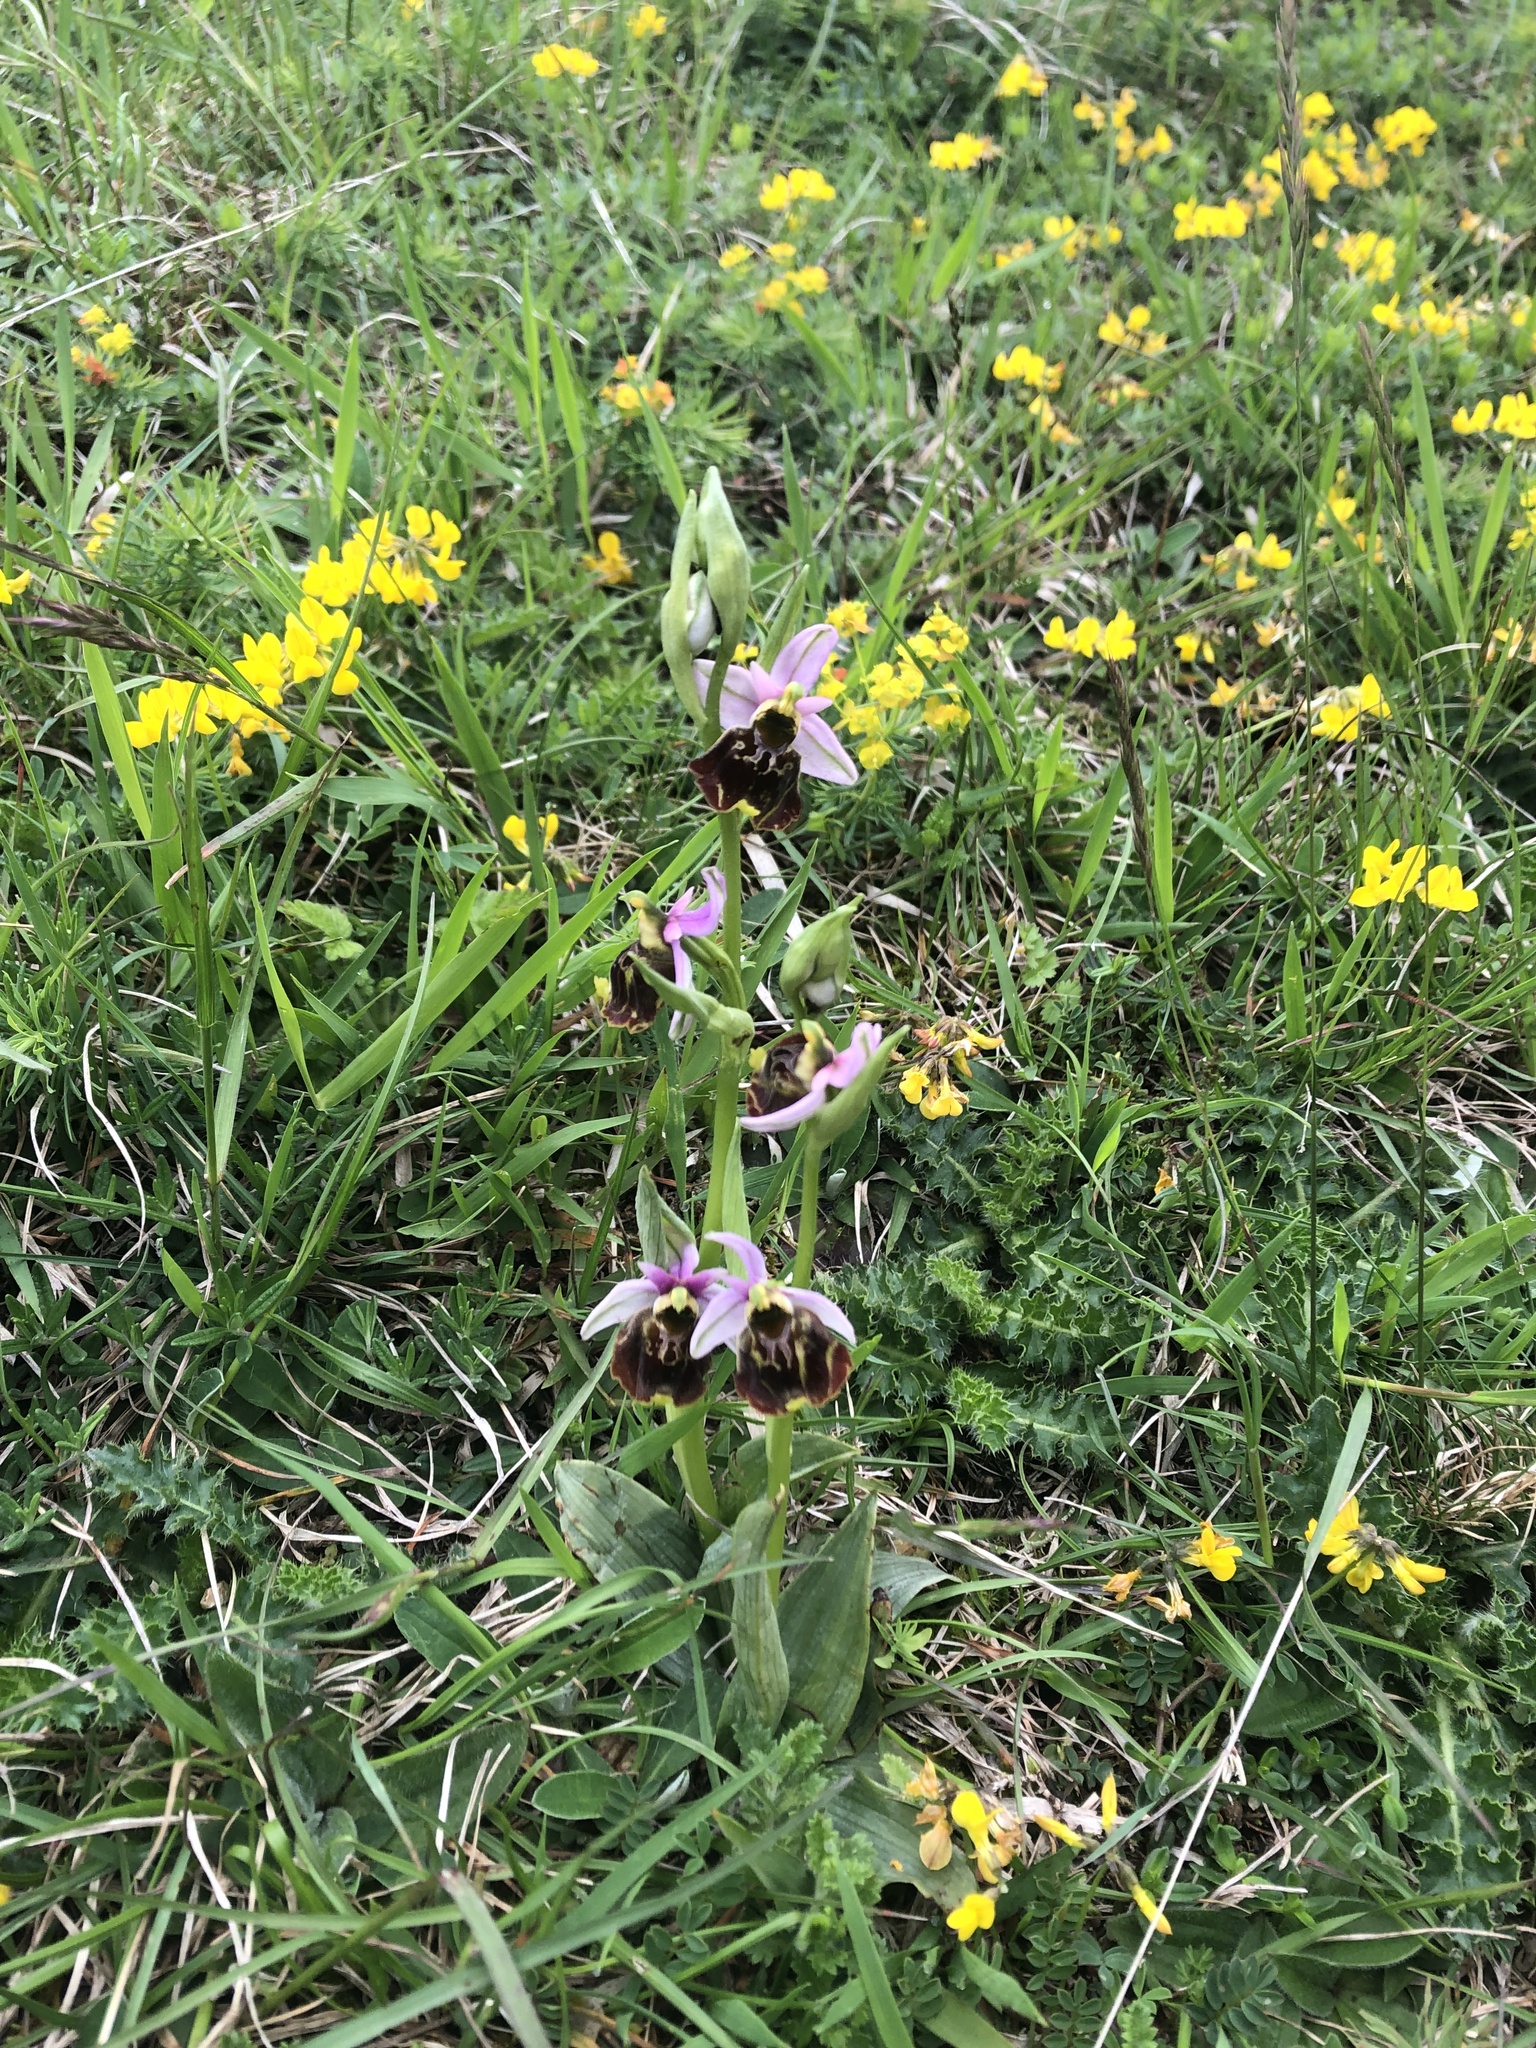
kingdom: Plantae
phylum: Tracheophyta
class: Liliopsida
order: Asparagales
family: Orchidaceae
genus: Ophrys
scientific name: Ophrys holosericea
